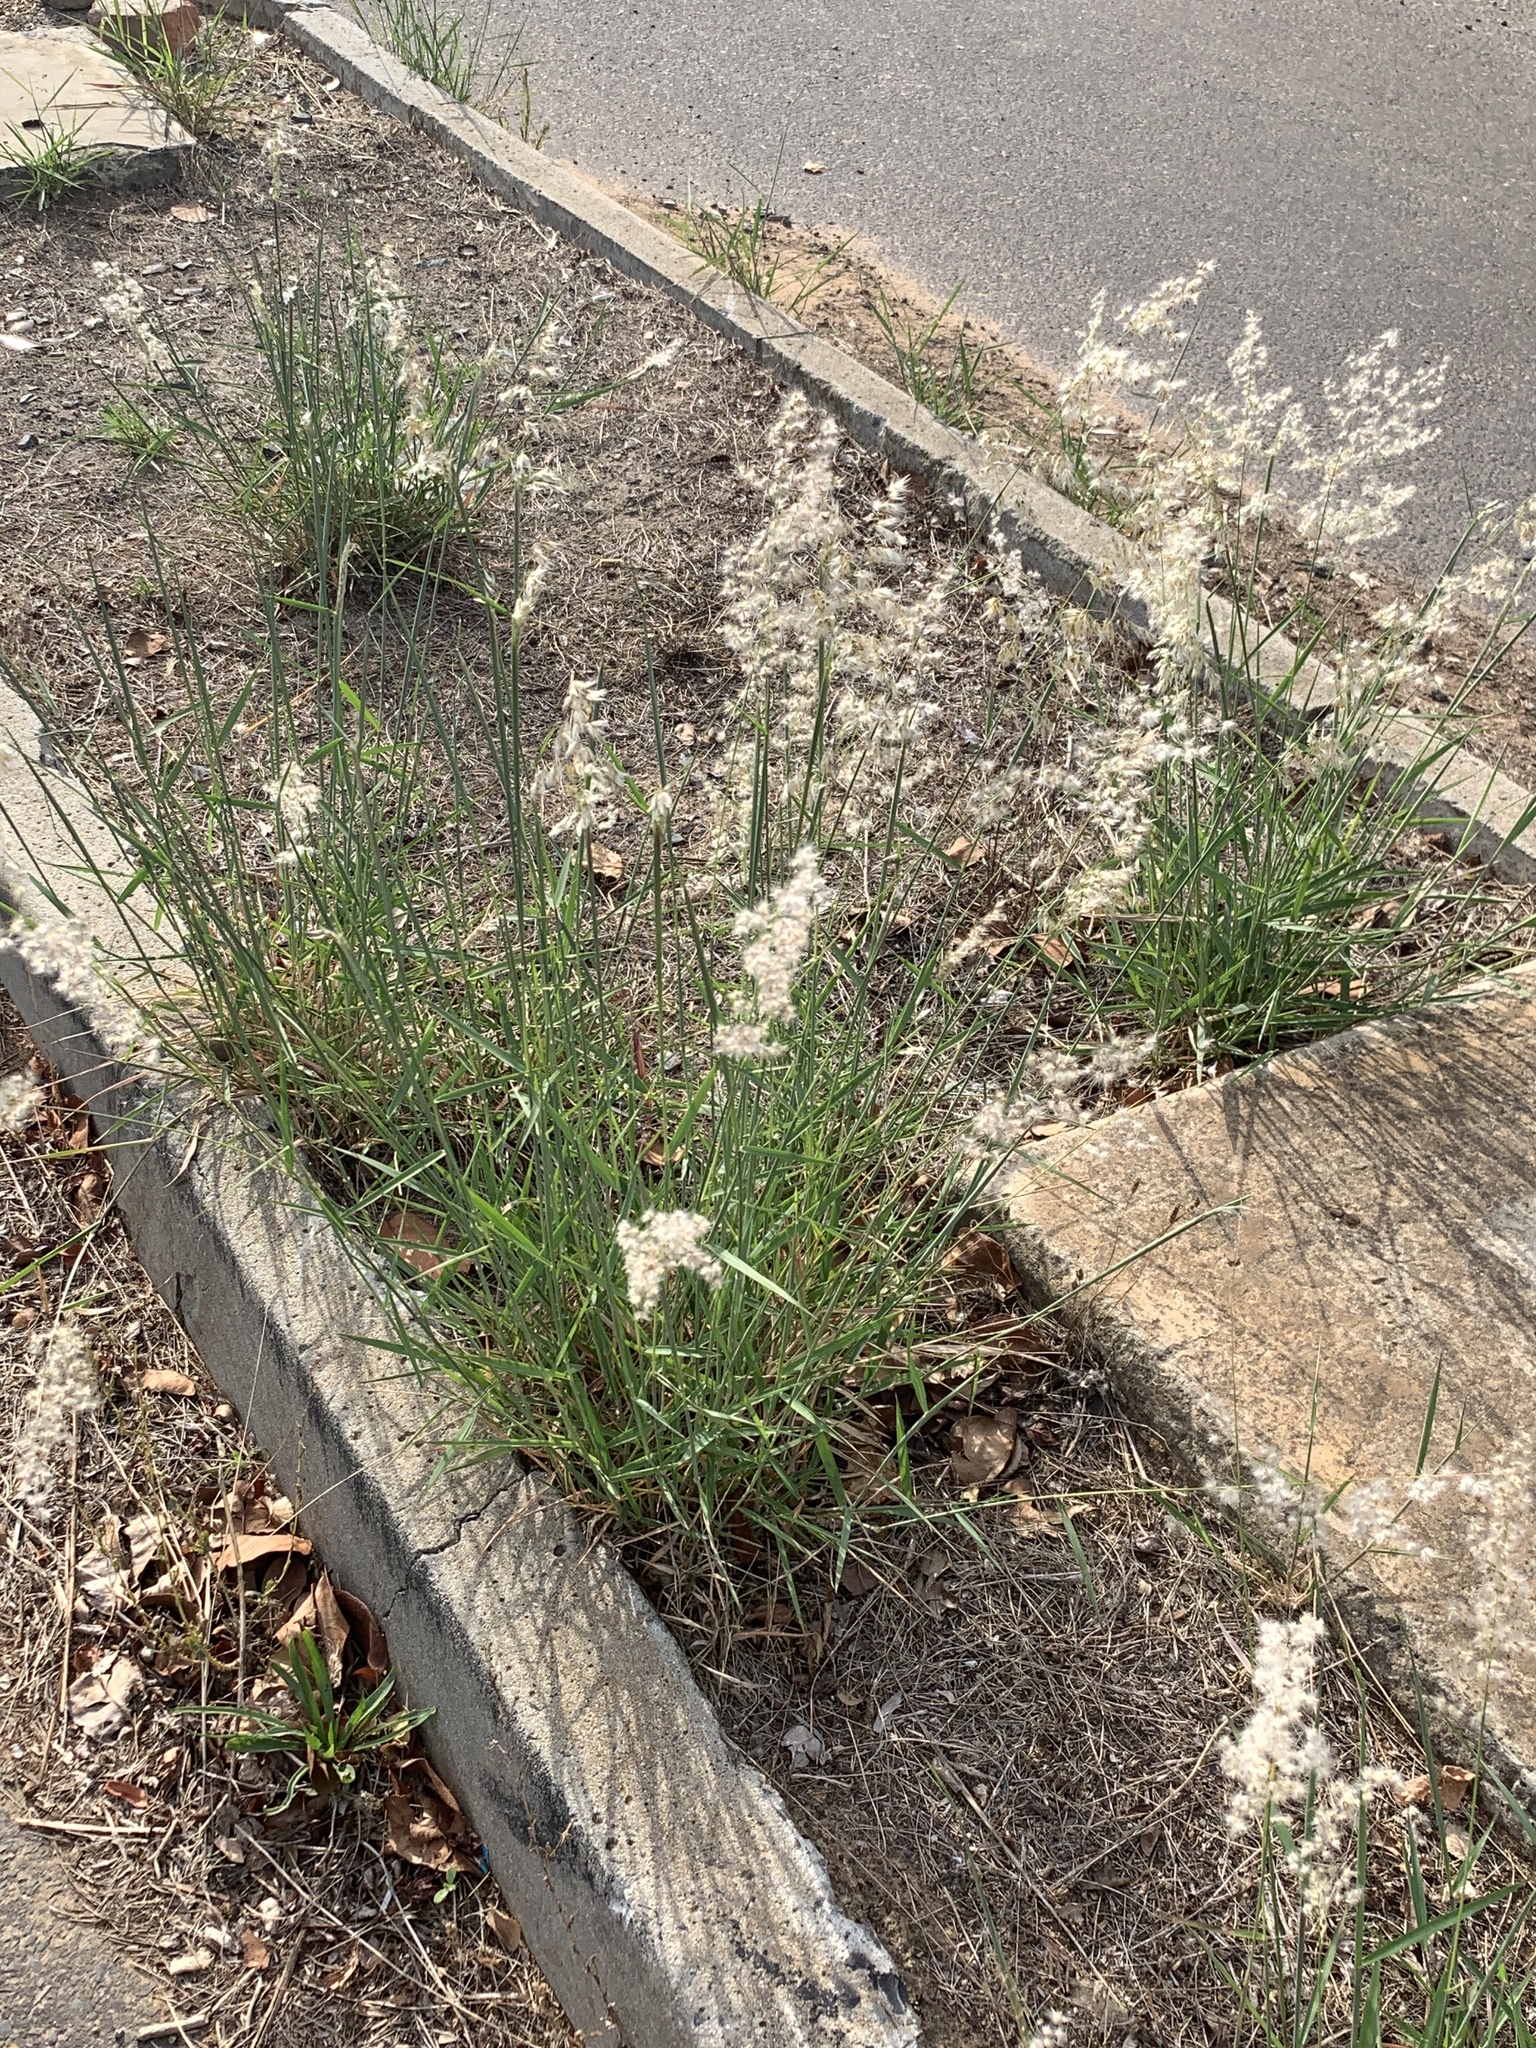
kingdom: Plantae
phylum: Tracheophyta
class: Liliopsida
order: Poales
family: Poaceae
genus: Melinis
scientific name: Melinis repens
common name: Rose natal grass
